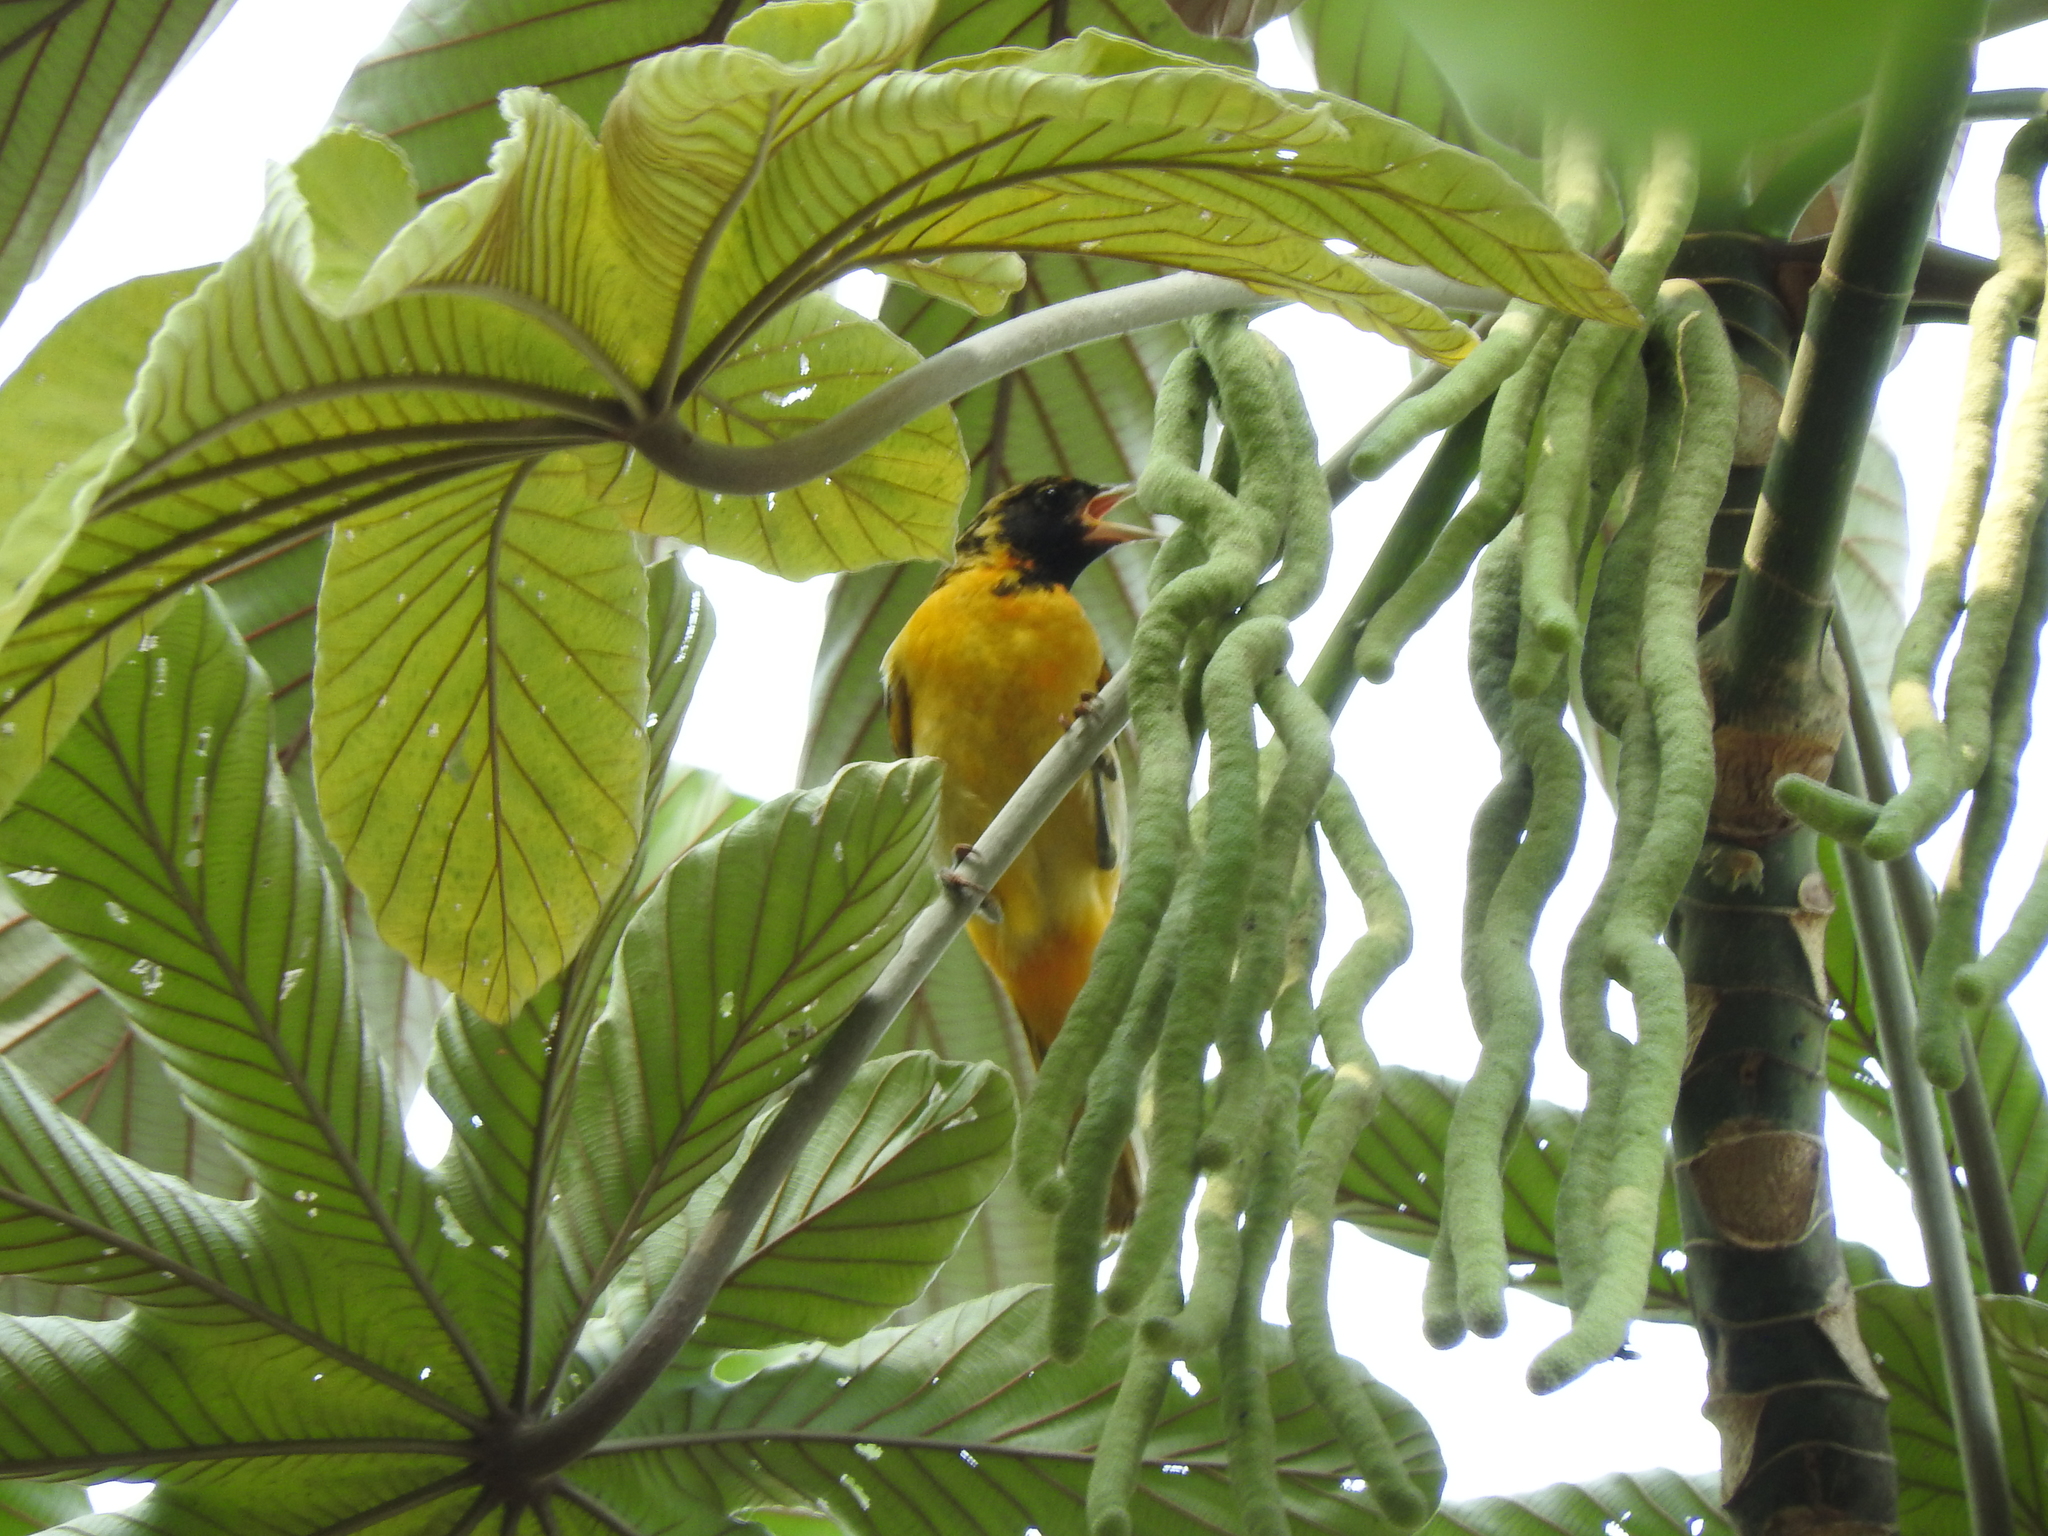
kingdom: Animalia
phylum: Chordata
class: Aves
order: Passeriformes
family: Icteridae
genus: Icterus
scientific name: Icterus galbula
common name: Baltimore oriole
